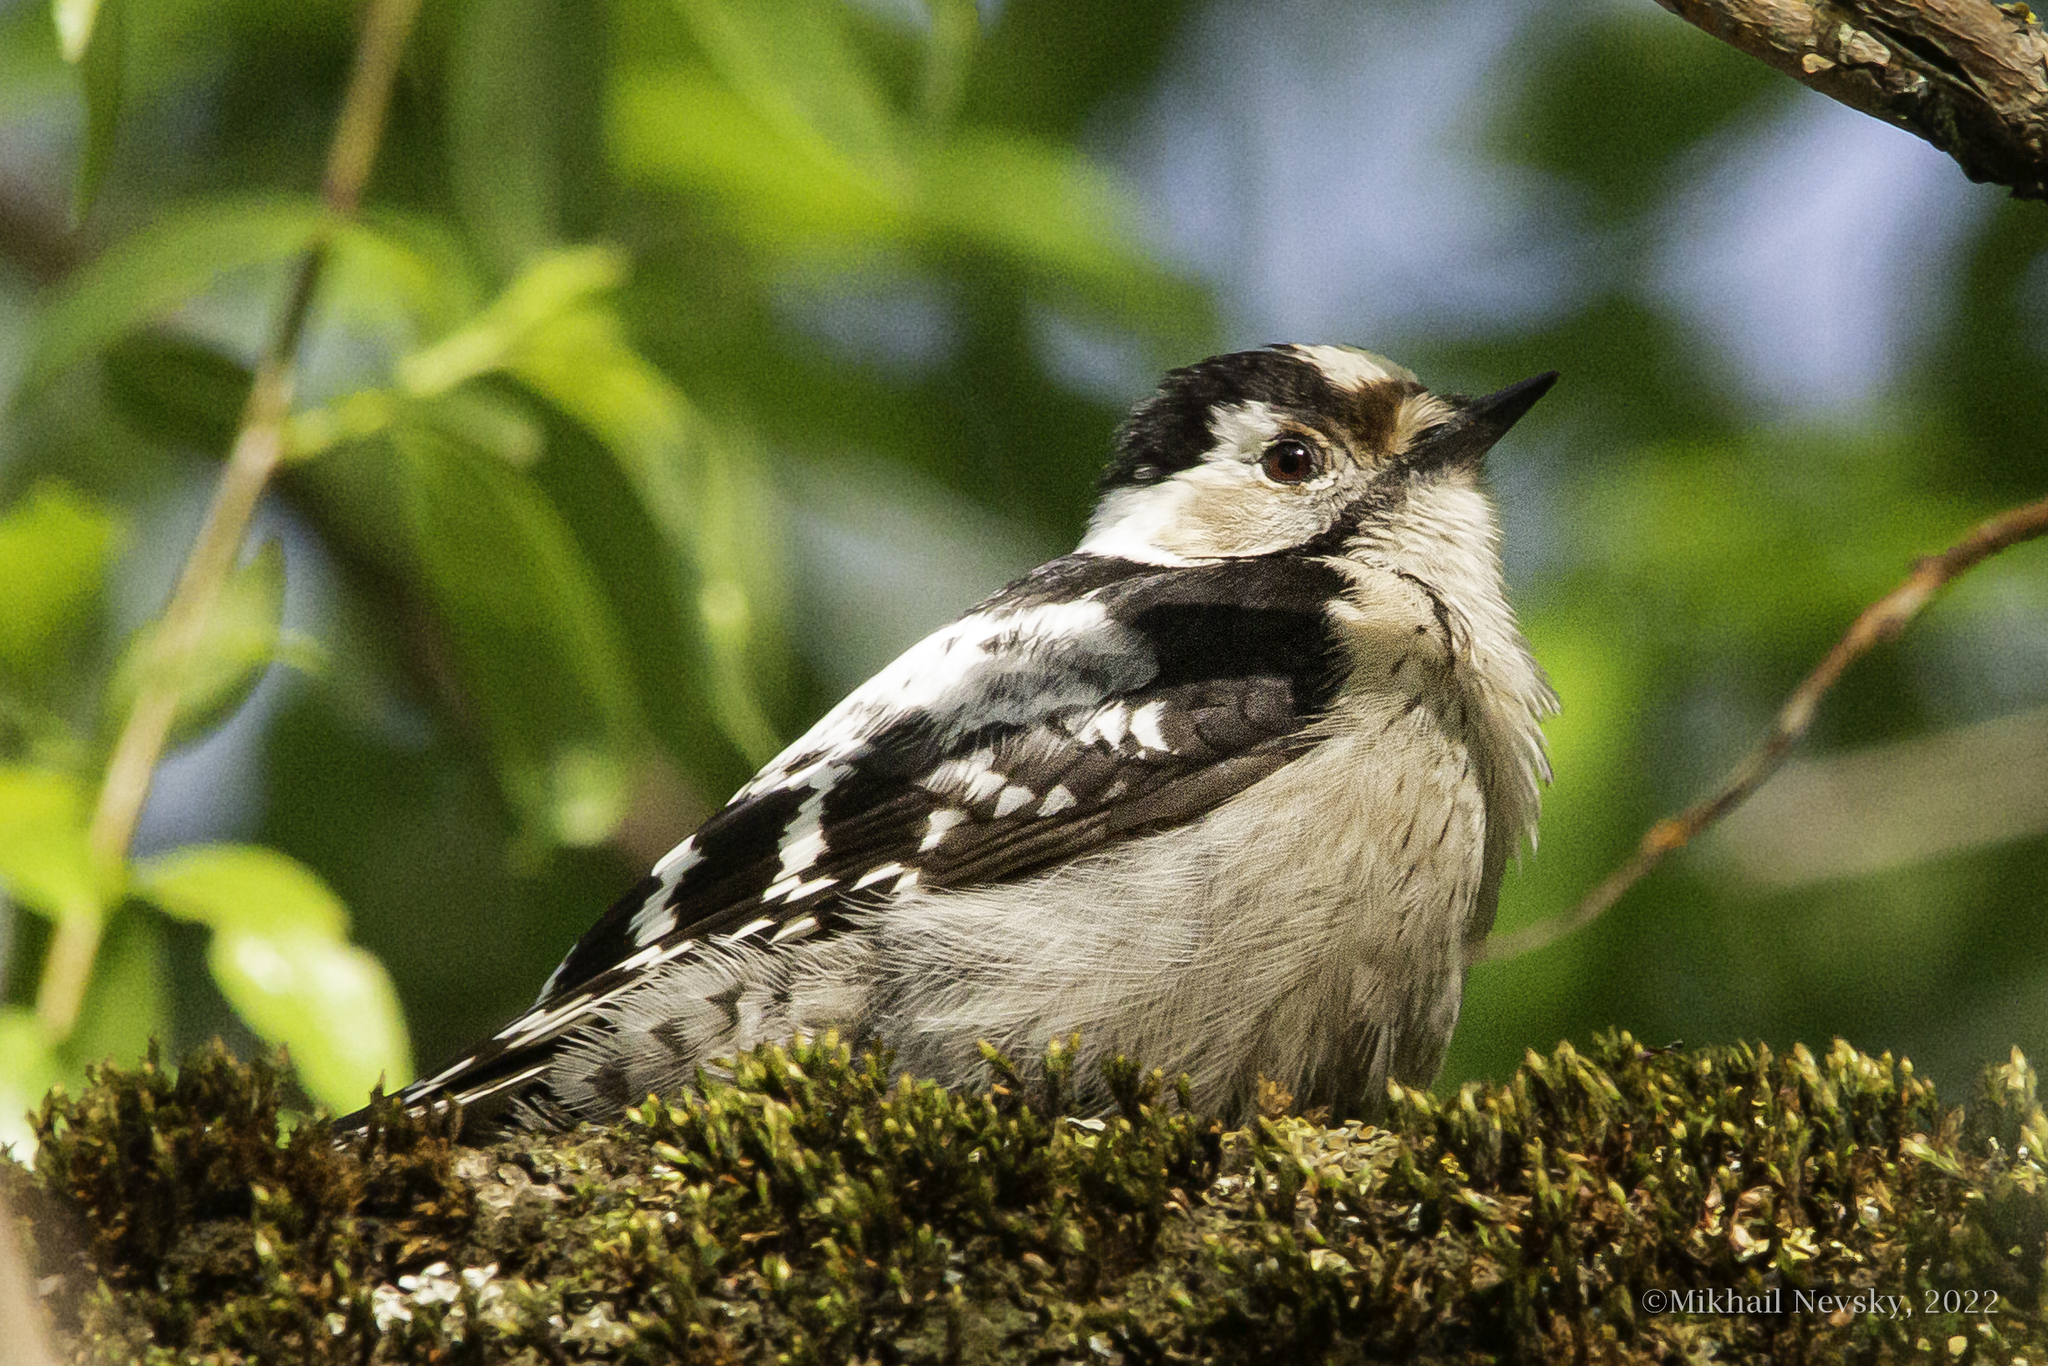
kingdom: Animalia
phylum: Chordata
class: Aves
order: Piciformes
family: Picidae
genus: Dryobates
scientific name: Dryobates minor
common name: Lesser spotted woodpecker
